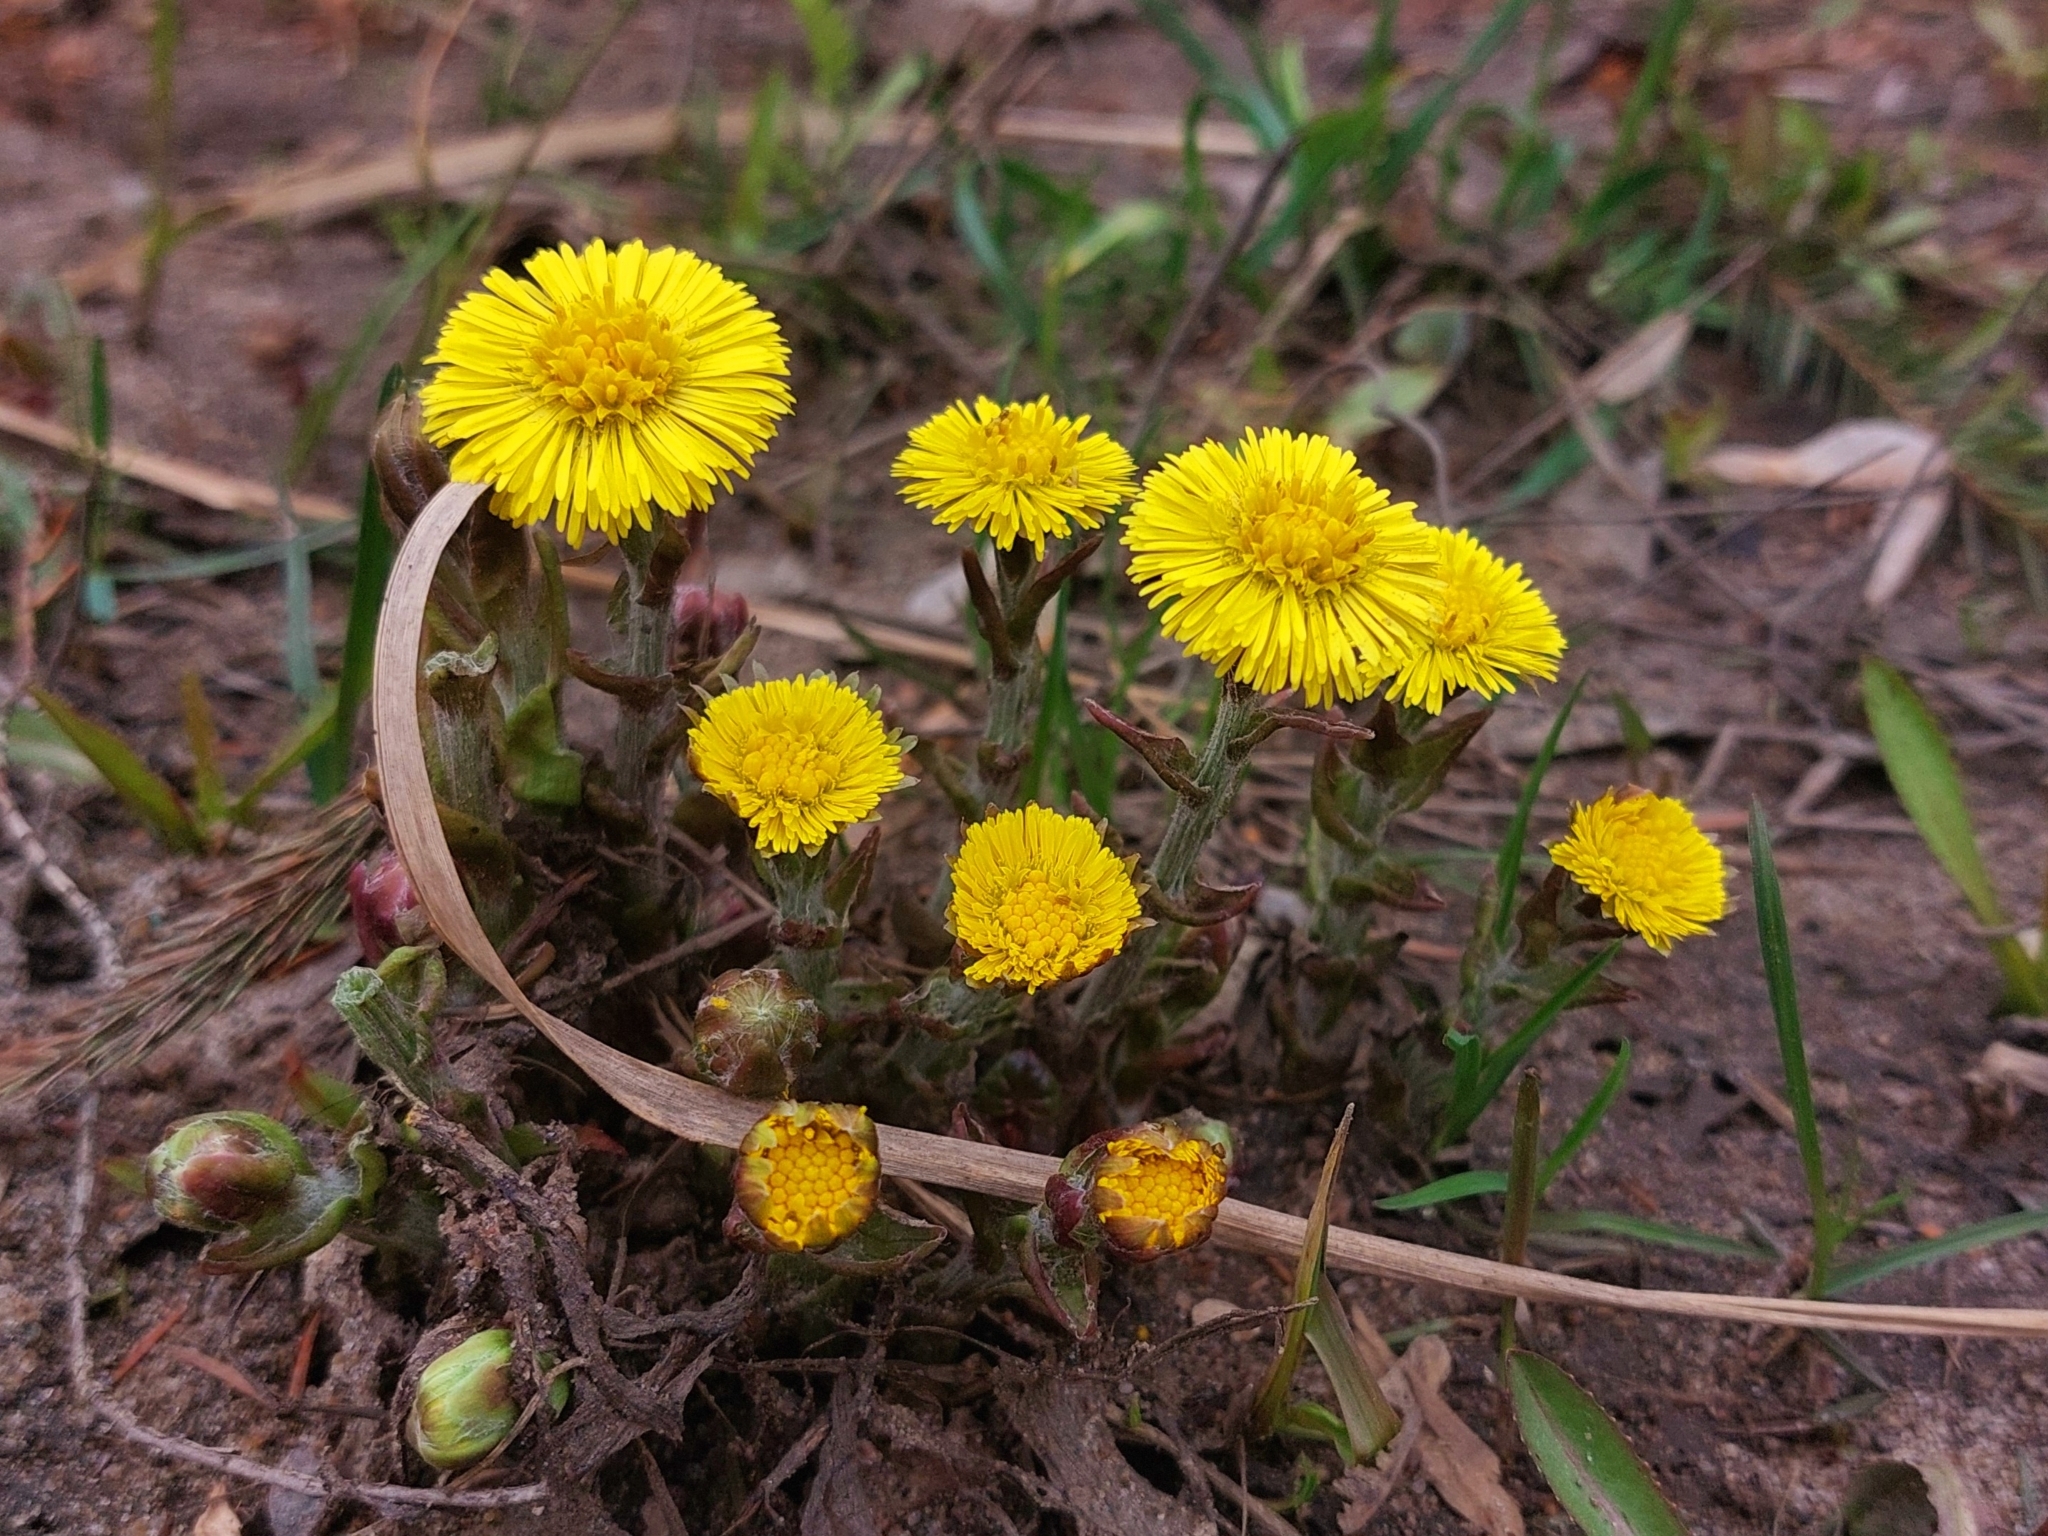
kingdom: Plantae
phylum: Tracheophyta
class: Magnoliopsida
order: Asterales
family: Asteraceae
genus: Tussilago
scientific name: Tussilago farfara
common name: Coltsfoot
